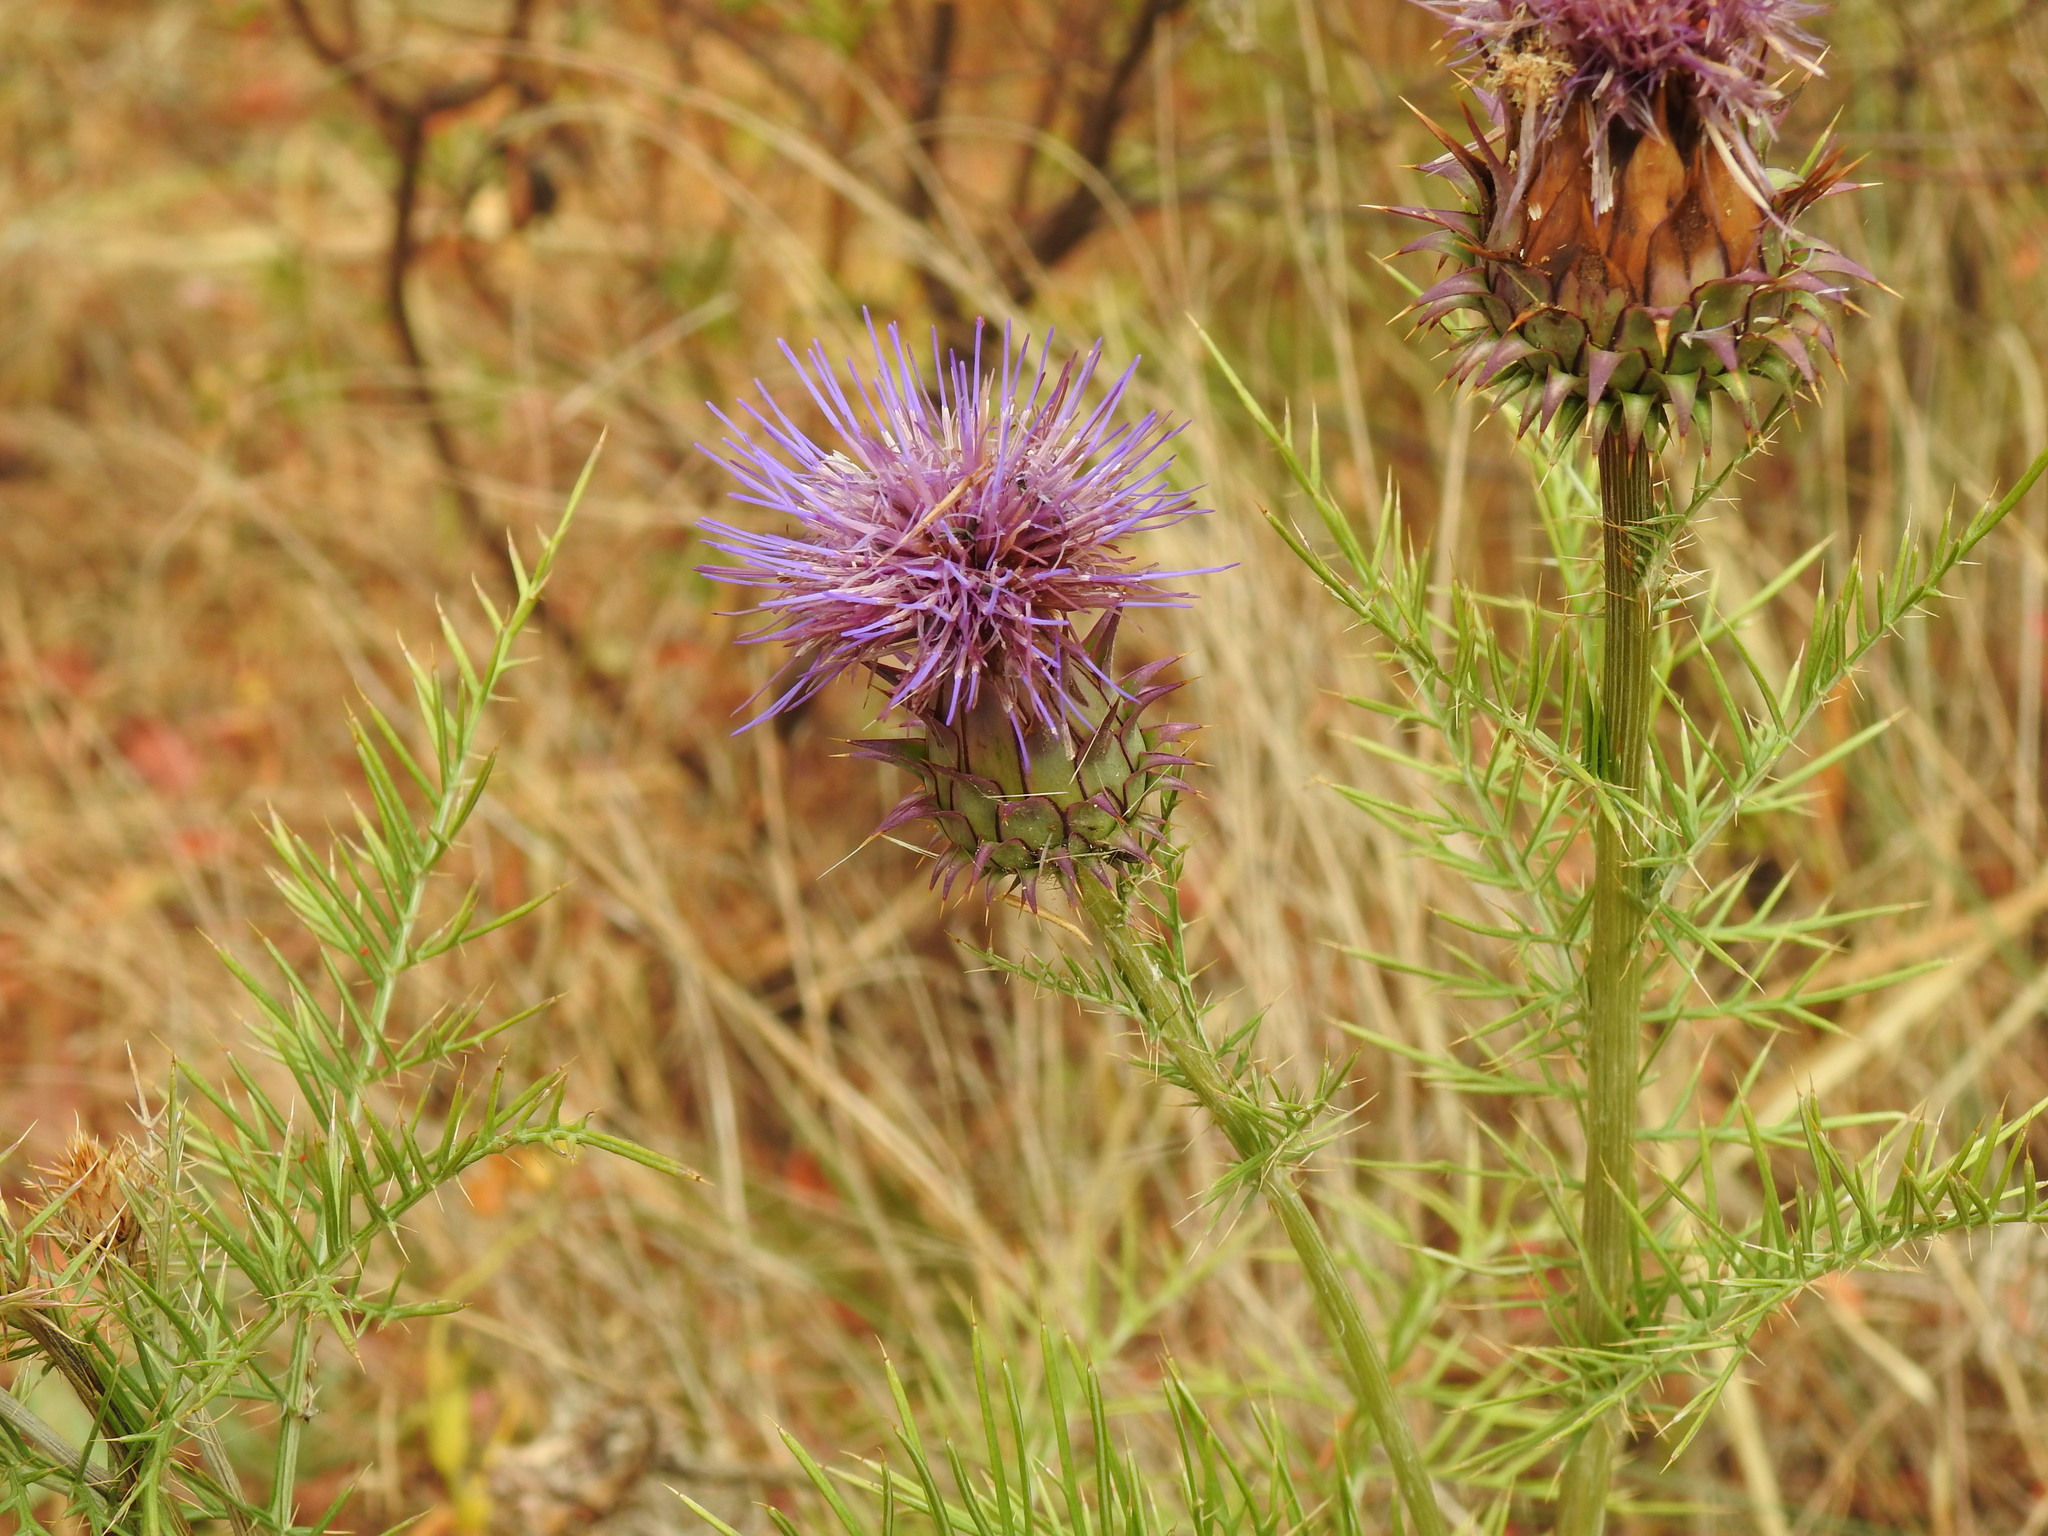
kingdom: Plantae
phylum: Tracheophyta
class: Magnoliopsida
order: Asterales
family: Asteraceae
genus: Cynara
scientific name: Cynara humilis
